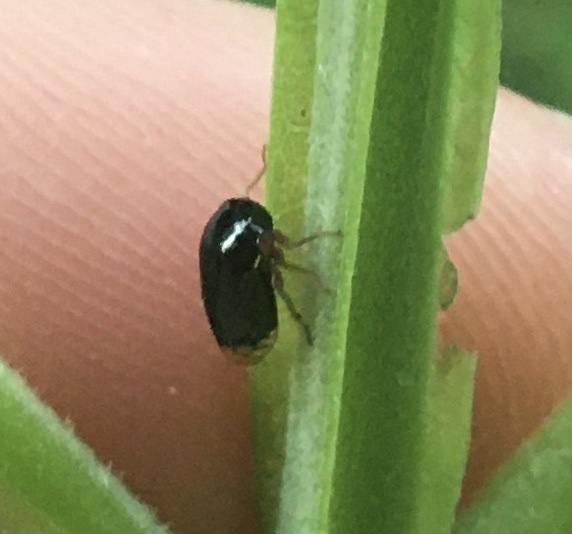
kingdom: Animalia
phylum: Arthropoda
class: Insecta
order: Hemiptera
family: Membracidae
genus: Acutalis
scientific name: Acutalis tartarea
